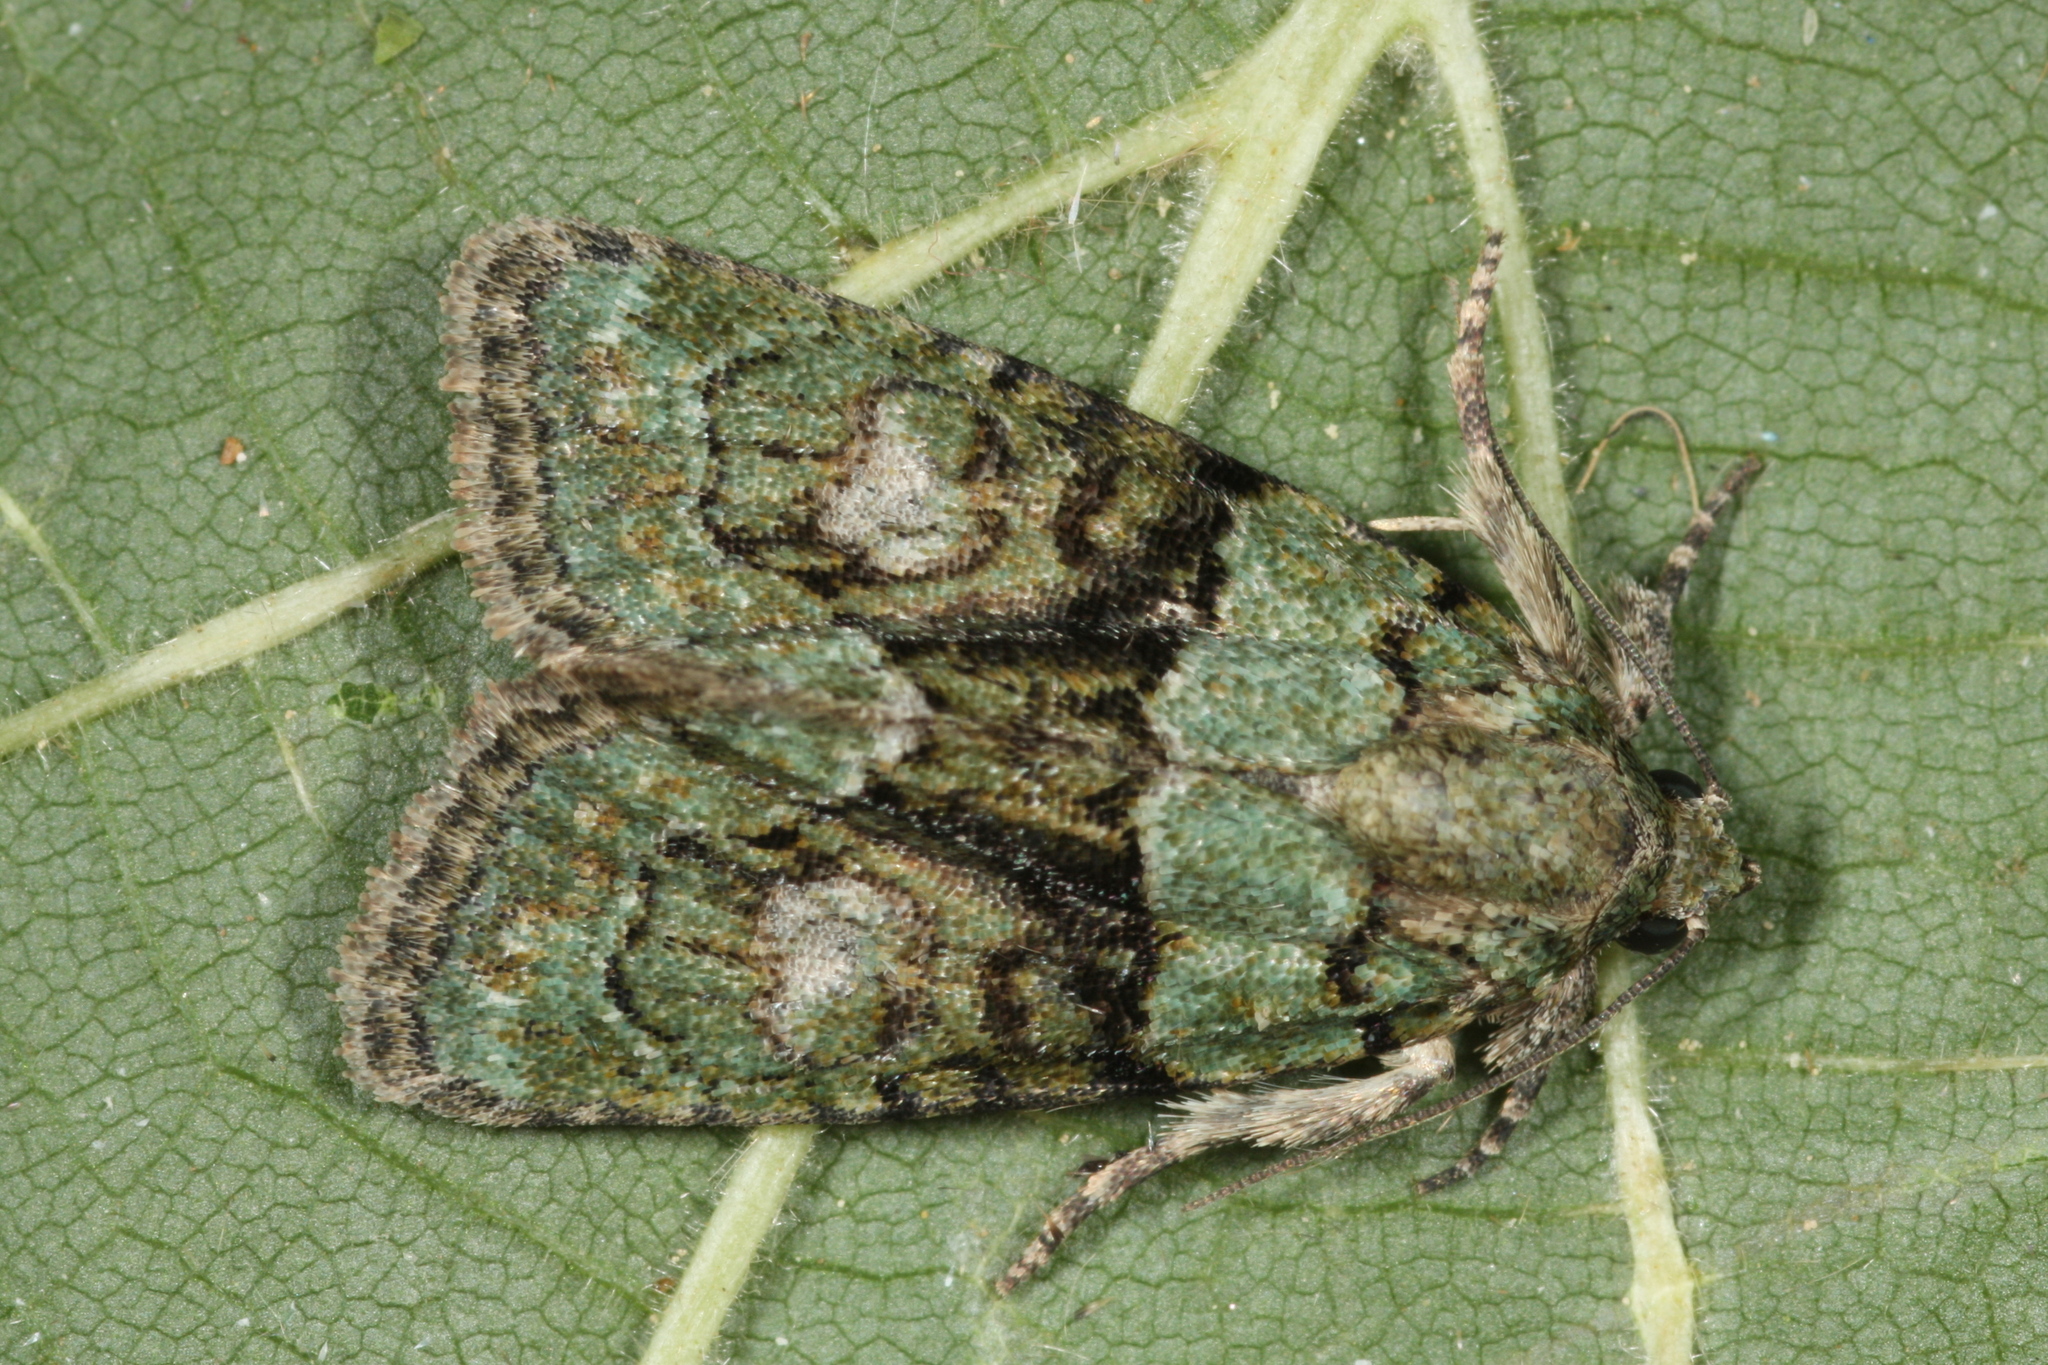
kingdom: Animalia
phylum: Arthropoda
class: Insecta
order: Lepidoptera
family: Noctuidae
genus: Cryphia
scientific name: Cryphia algae
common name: Tree-lichen beauty
